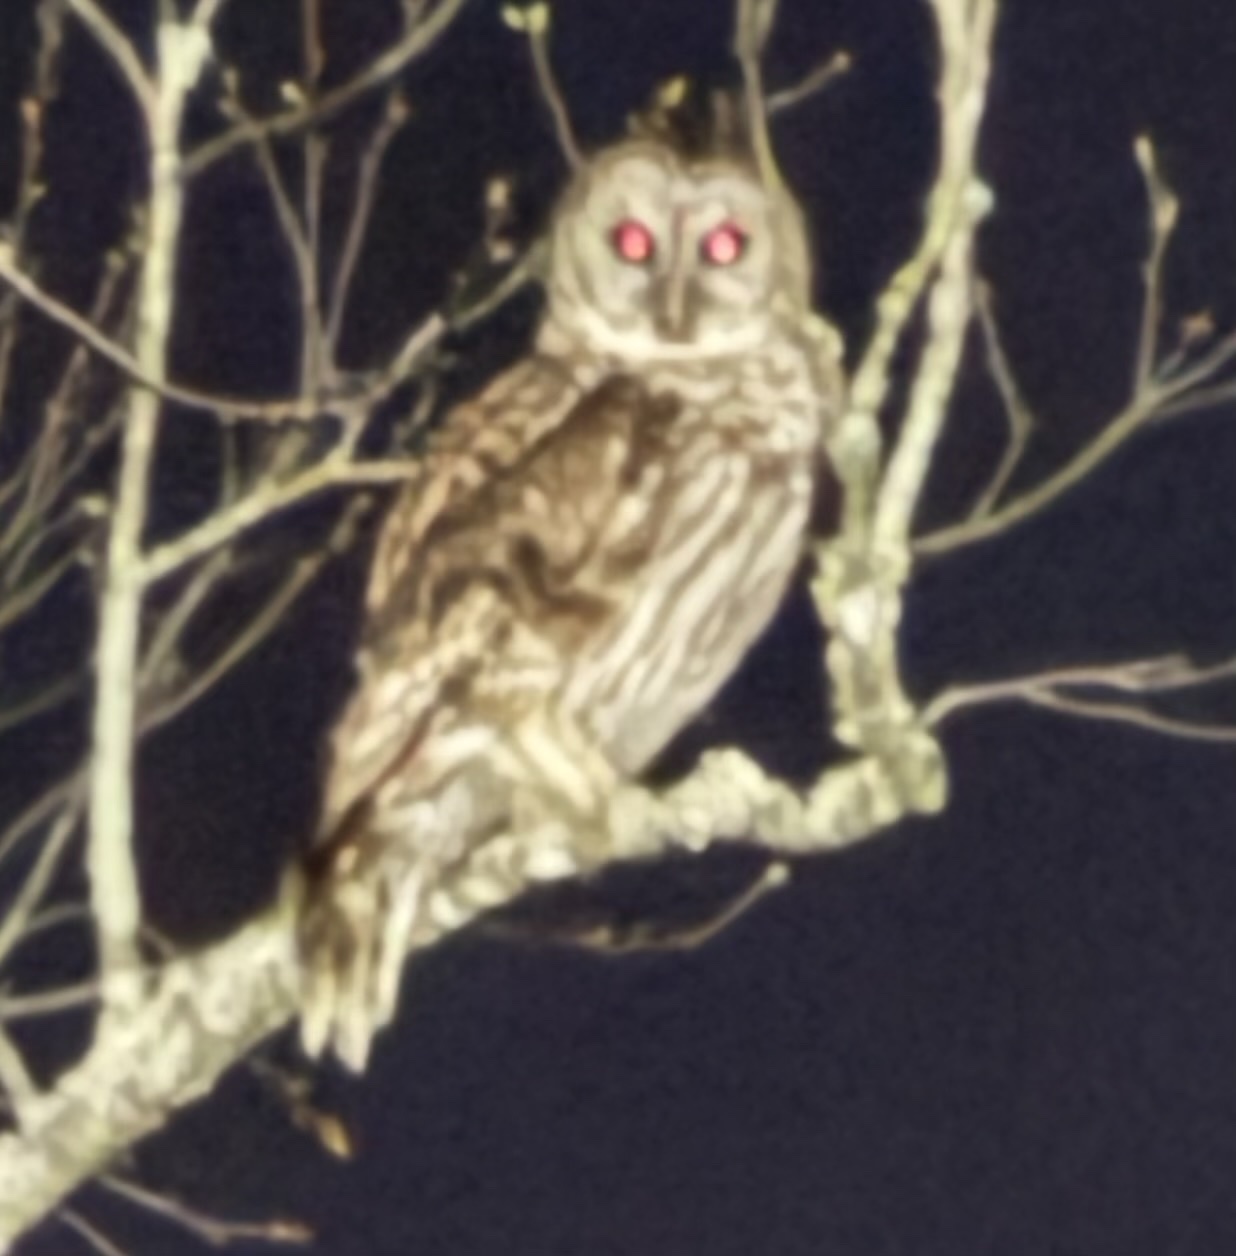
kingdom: Animalia
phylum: Chordata
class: Aves
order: Strigiformes
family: Strigidae
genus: Strix
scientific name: Strix varia
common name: Barred owl
